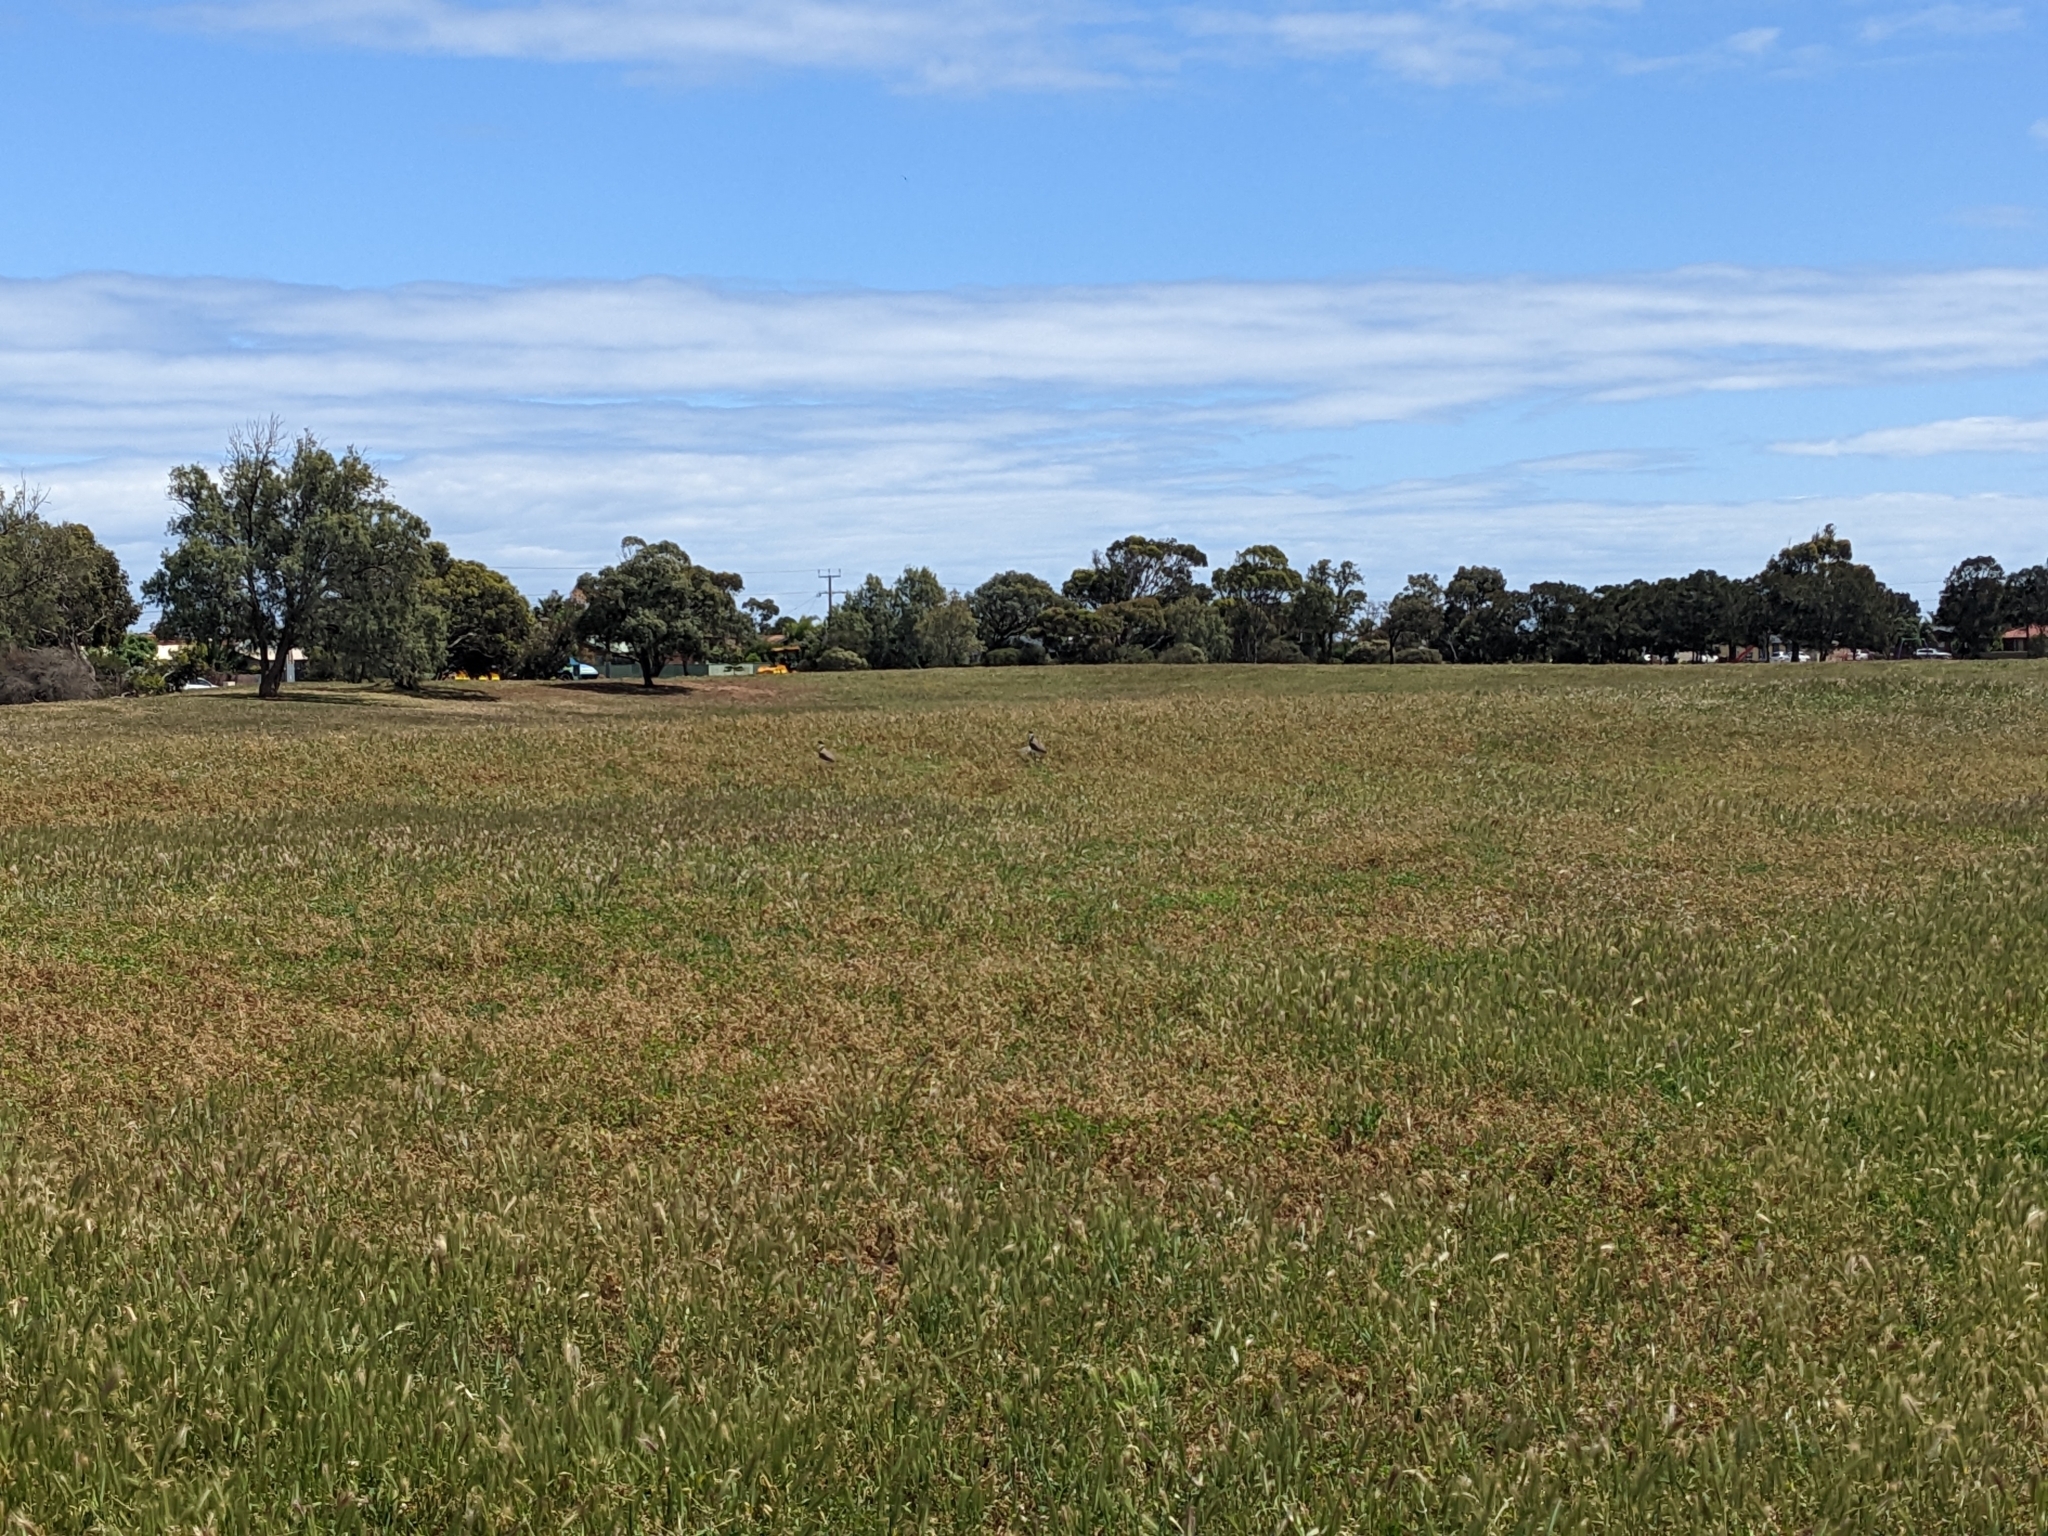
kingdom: Animalia
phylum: Chordata
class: Aves
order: Charadriiformes
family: Charadriidae
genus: Vanellus
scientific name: Vanellus miles
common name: Masked lapwing
